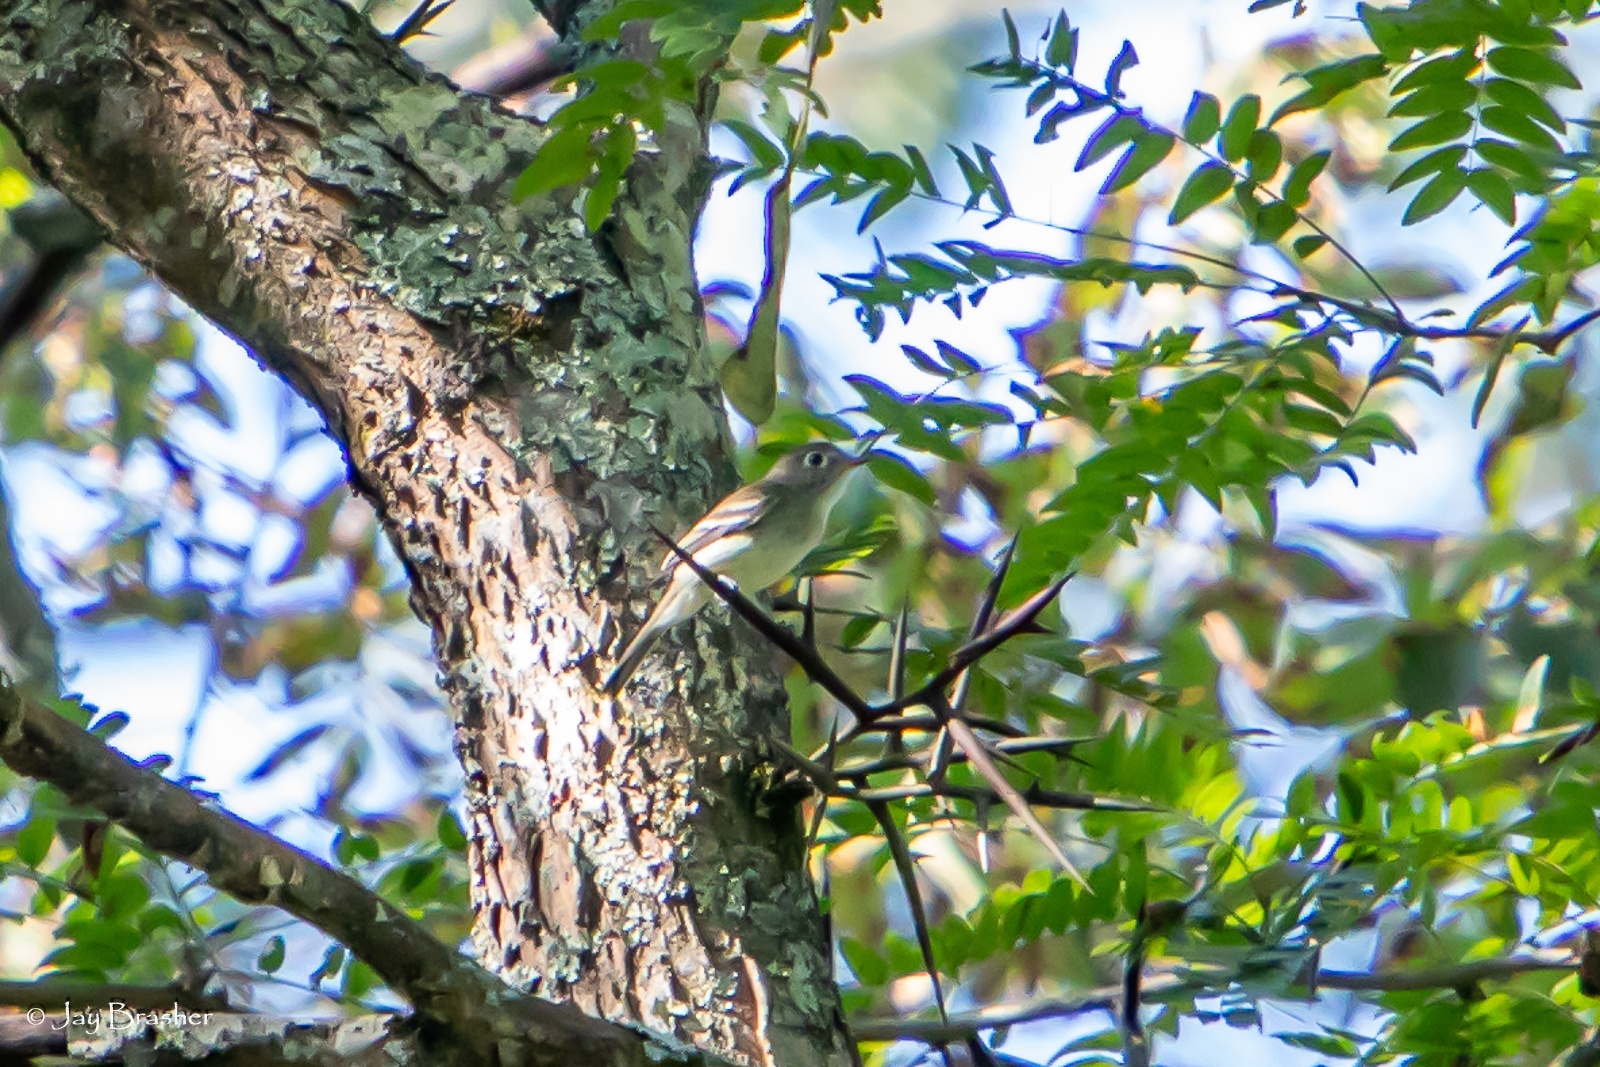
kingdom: Animalia
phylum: Chordata
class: Aves
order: Passeriformes
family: Tyrannidae
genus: Empidonax
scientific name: Empidonax minimus
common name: Least flycatcher
